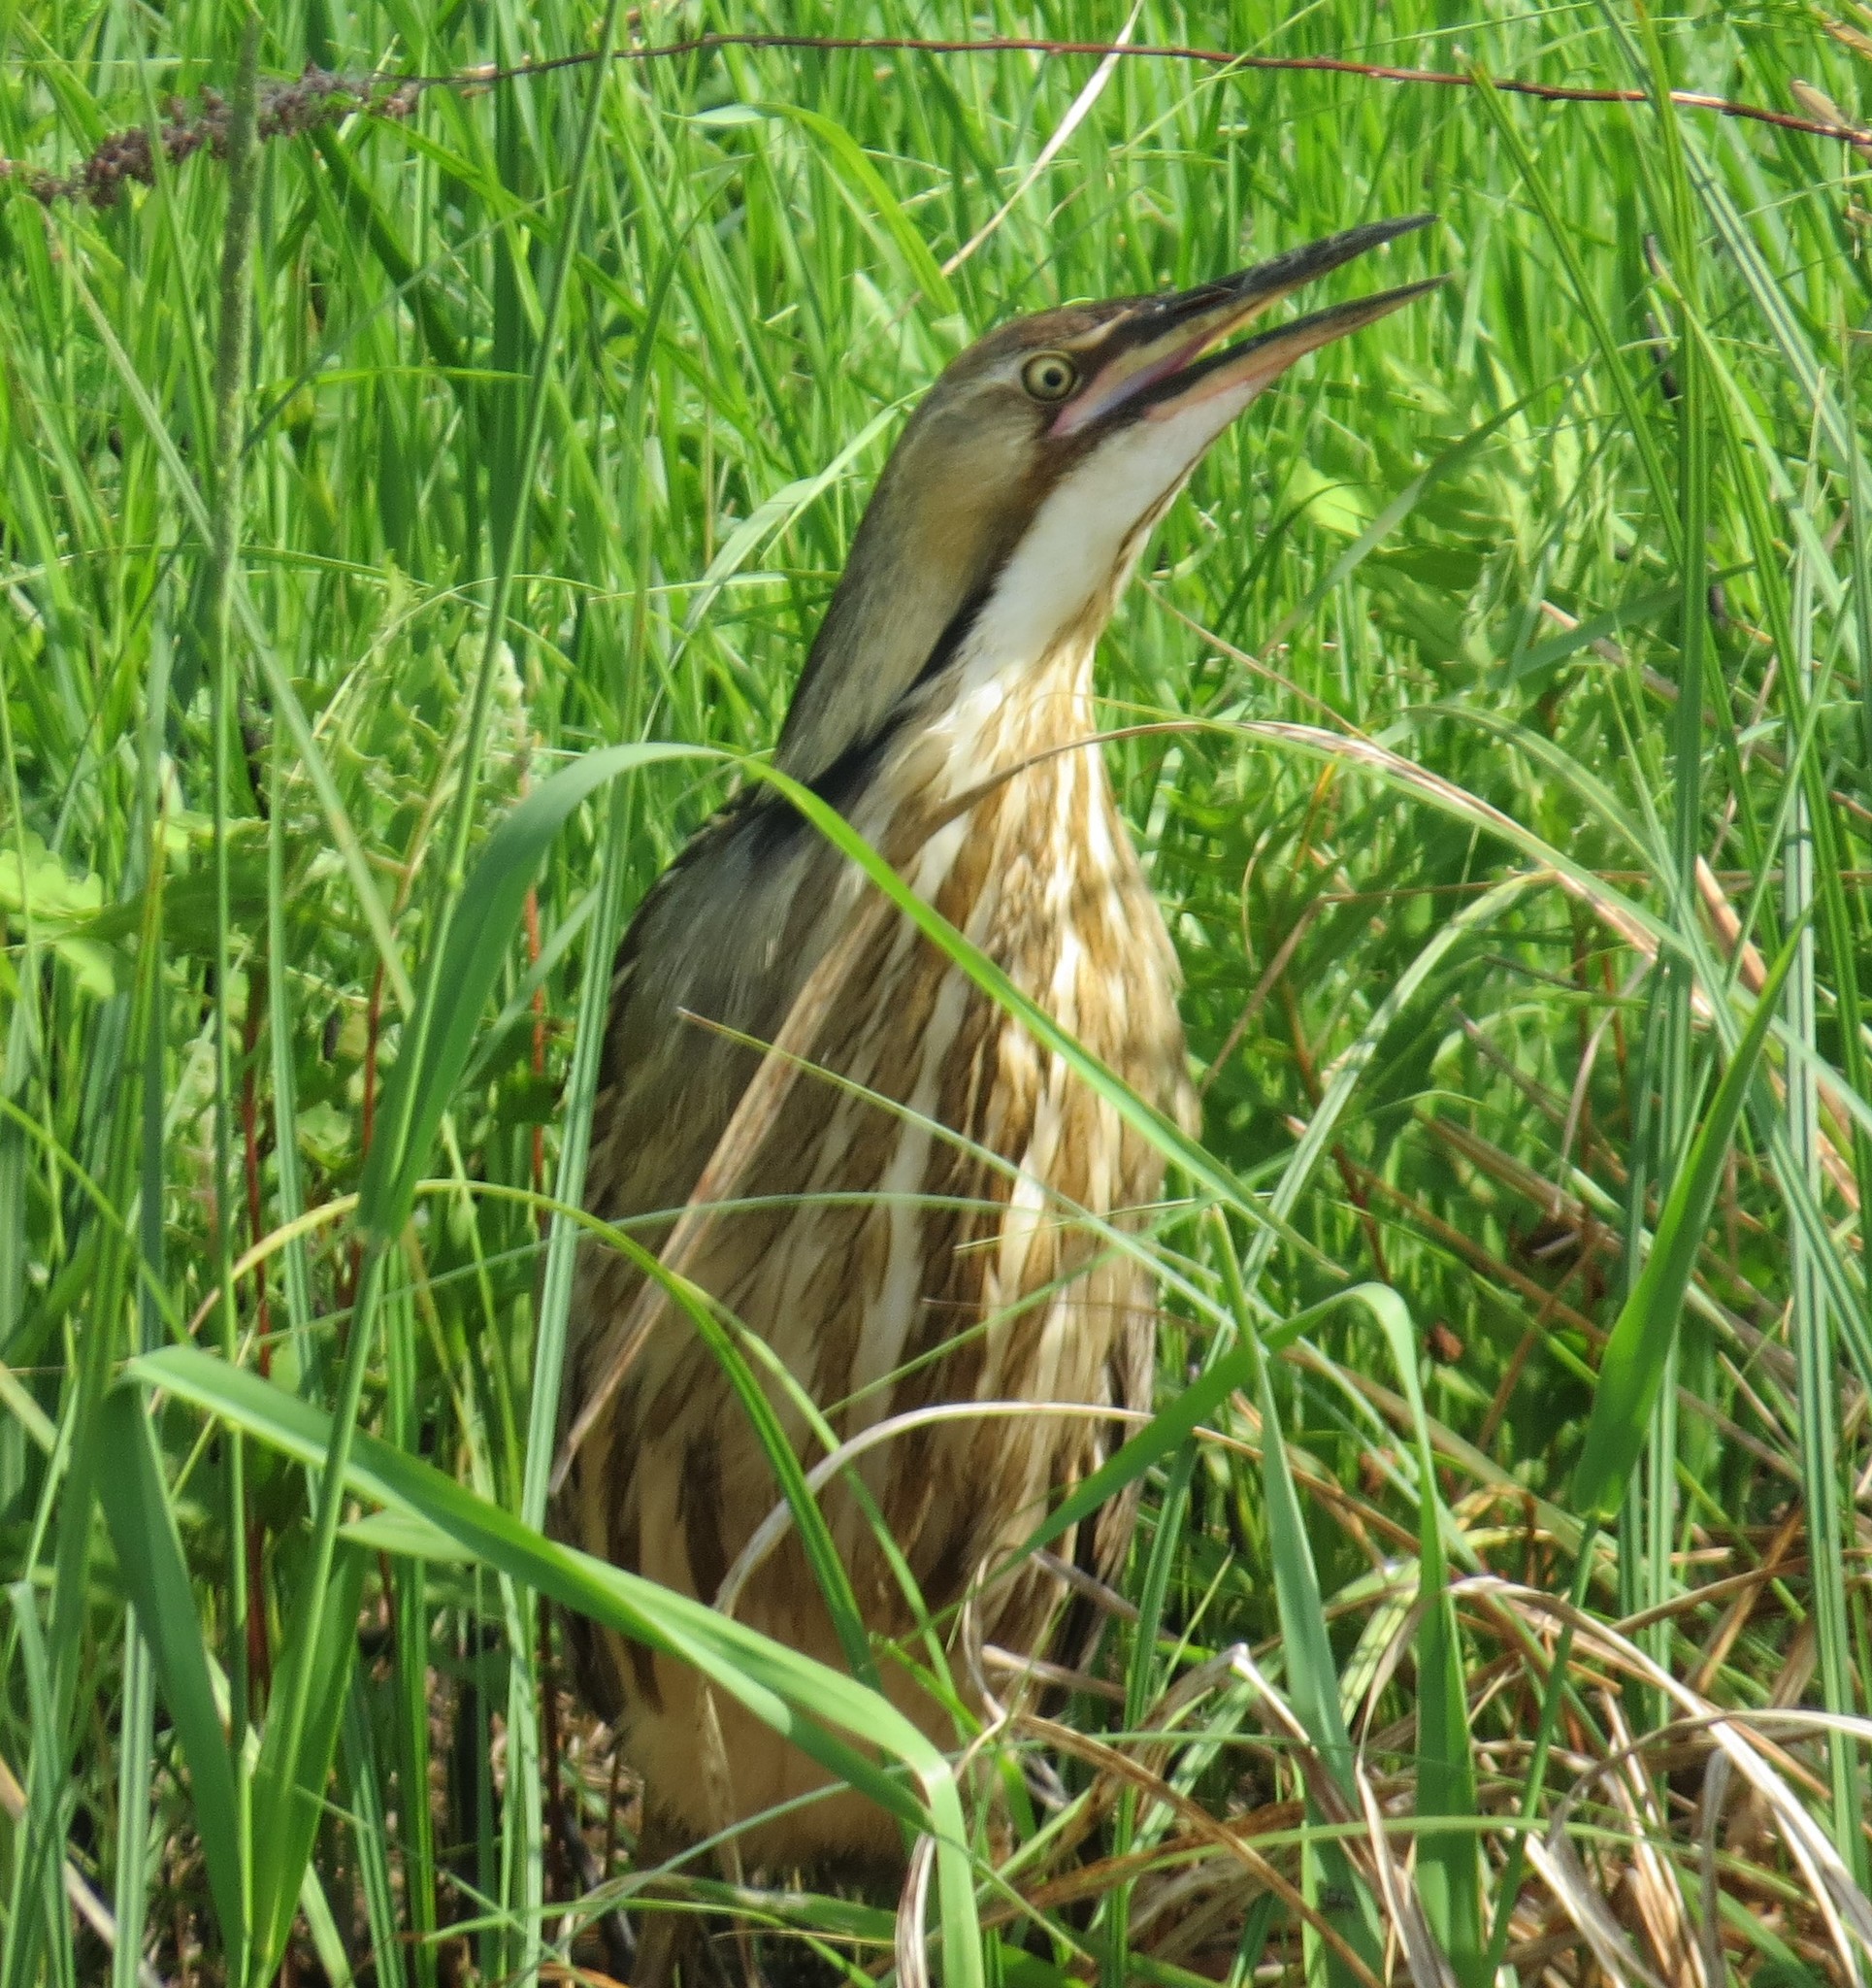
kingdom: Animalia
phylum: Chordata
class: Aves
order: Pelecaniformes
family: Ardeidae
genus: Botaurus
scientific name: Botaurus lentiginosus
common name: American bittern
